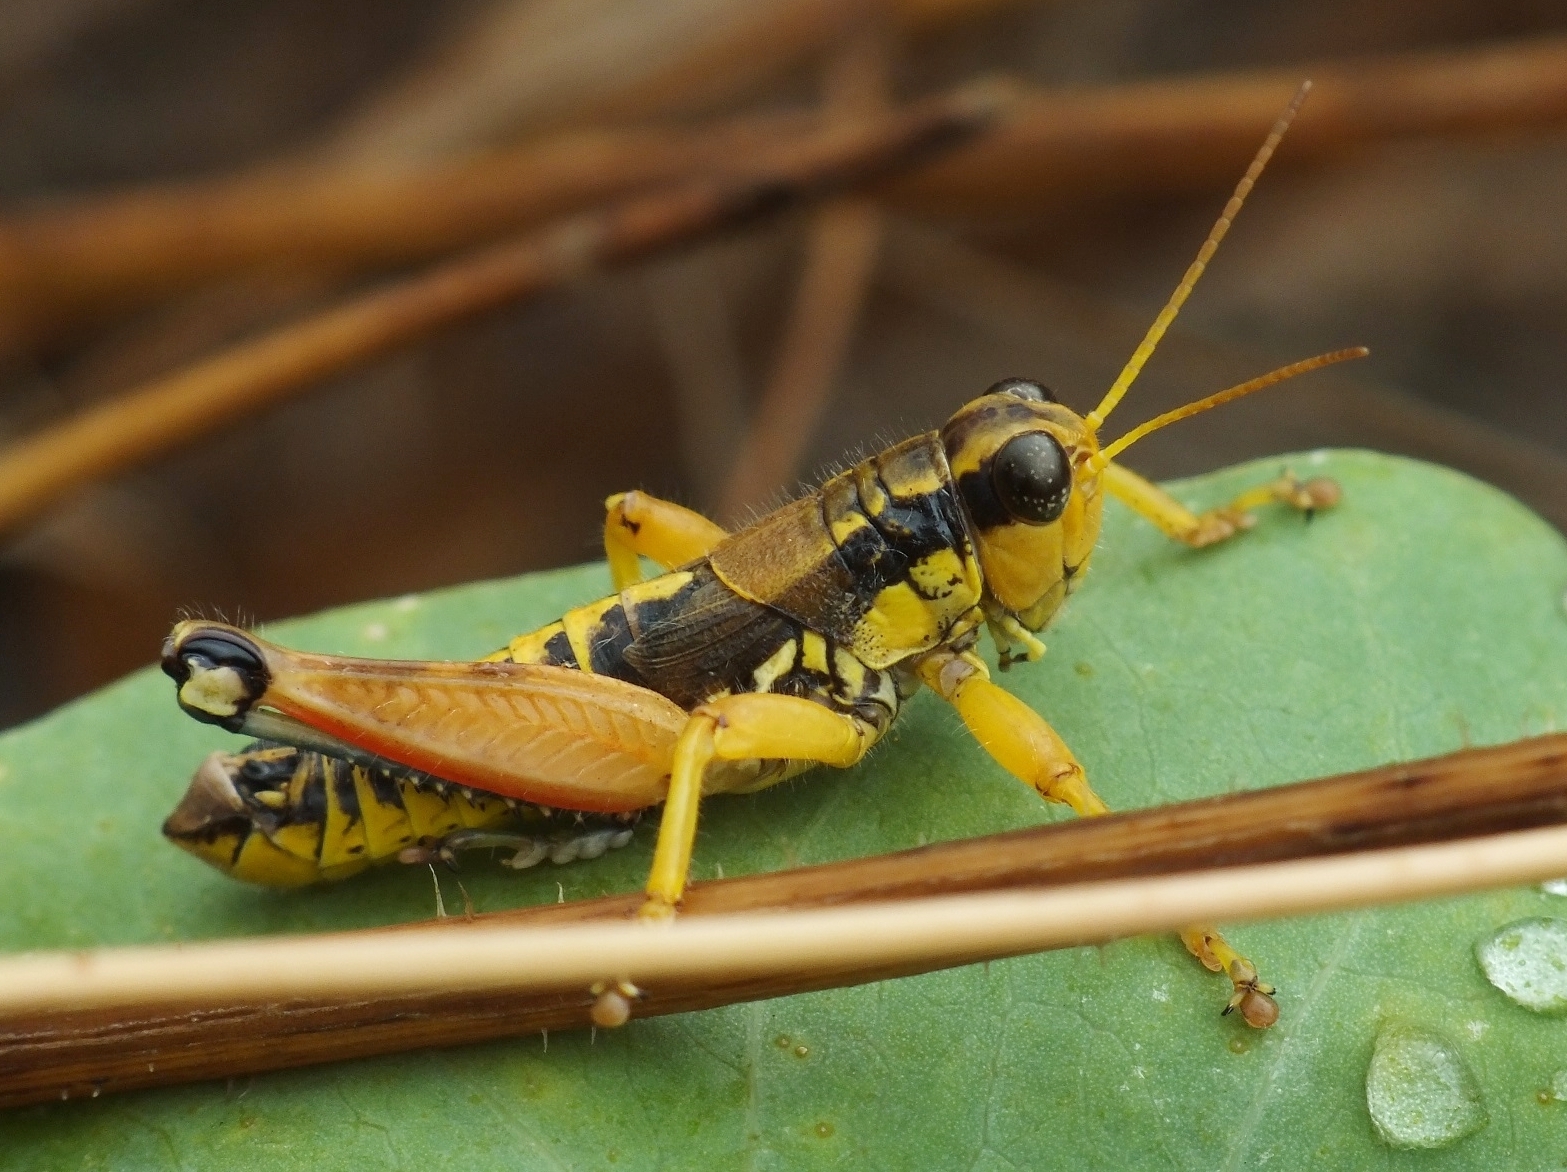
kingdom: Animalia
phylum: Arthropoda
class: Insecta
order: Orthoptera
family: Acrididae
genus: Podisma
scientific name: Podisma pedestris
